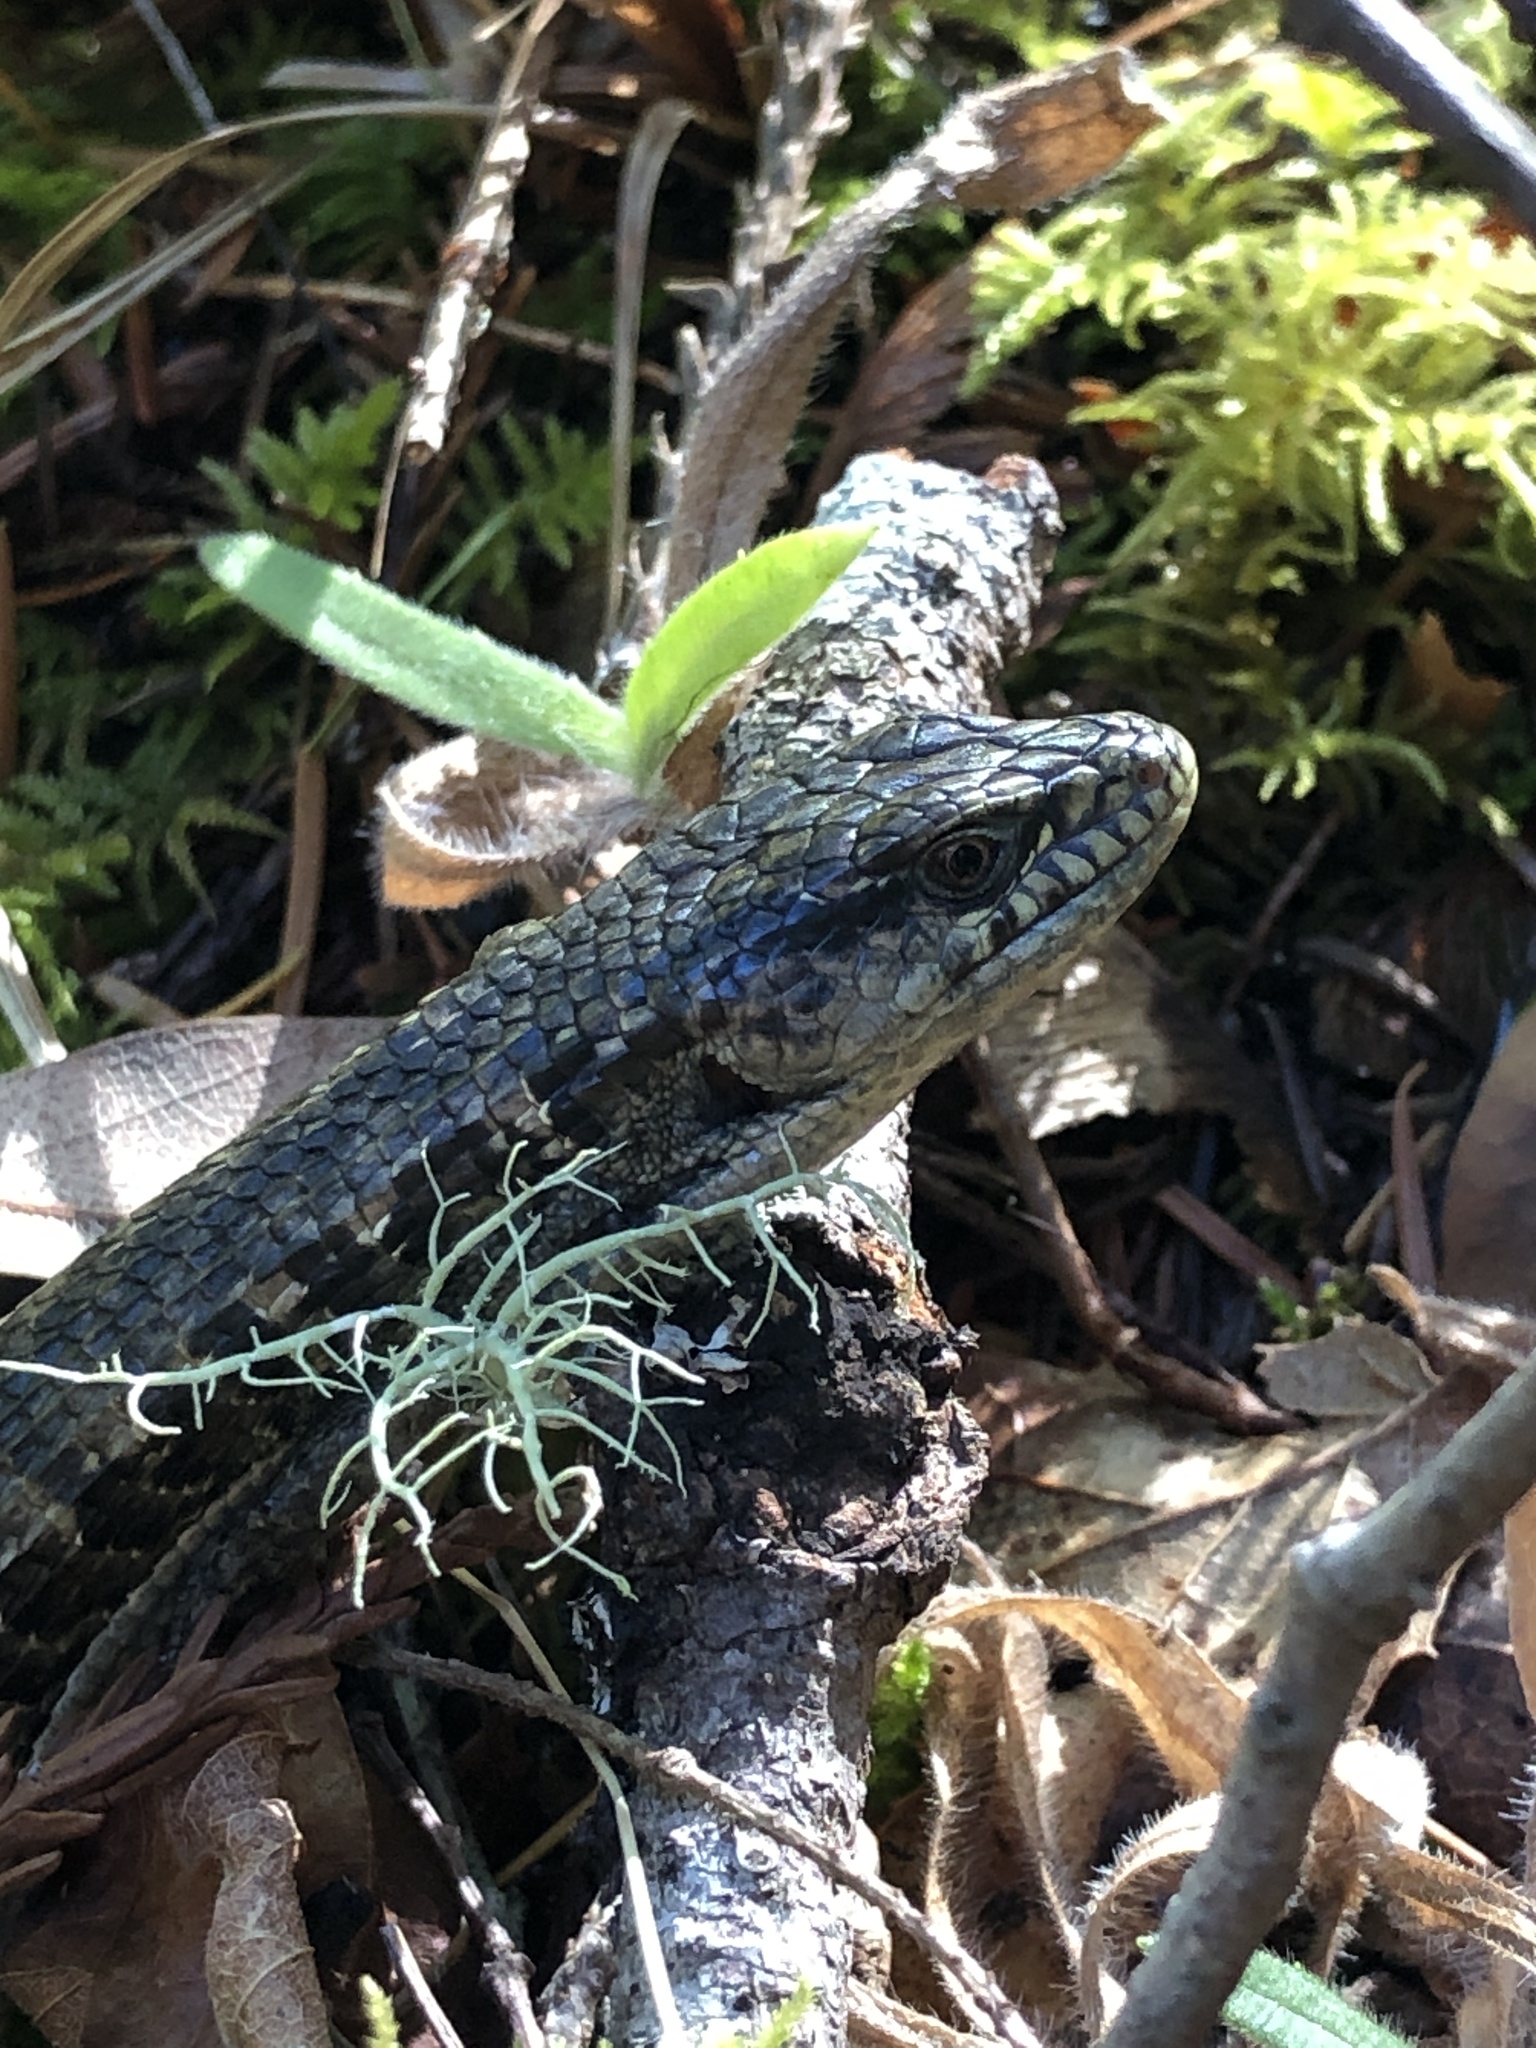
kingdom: Animalia
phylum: Chordata
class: Squamata
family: Anguidae
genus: Elgaria
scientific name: Elgaria coerulea
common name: Northern alligator lizard
